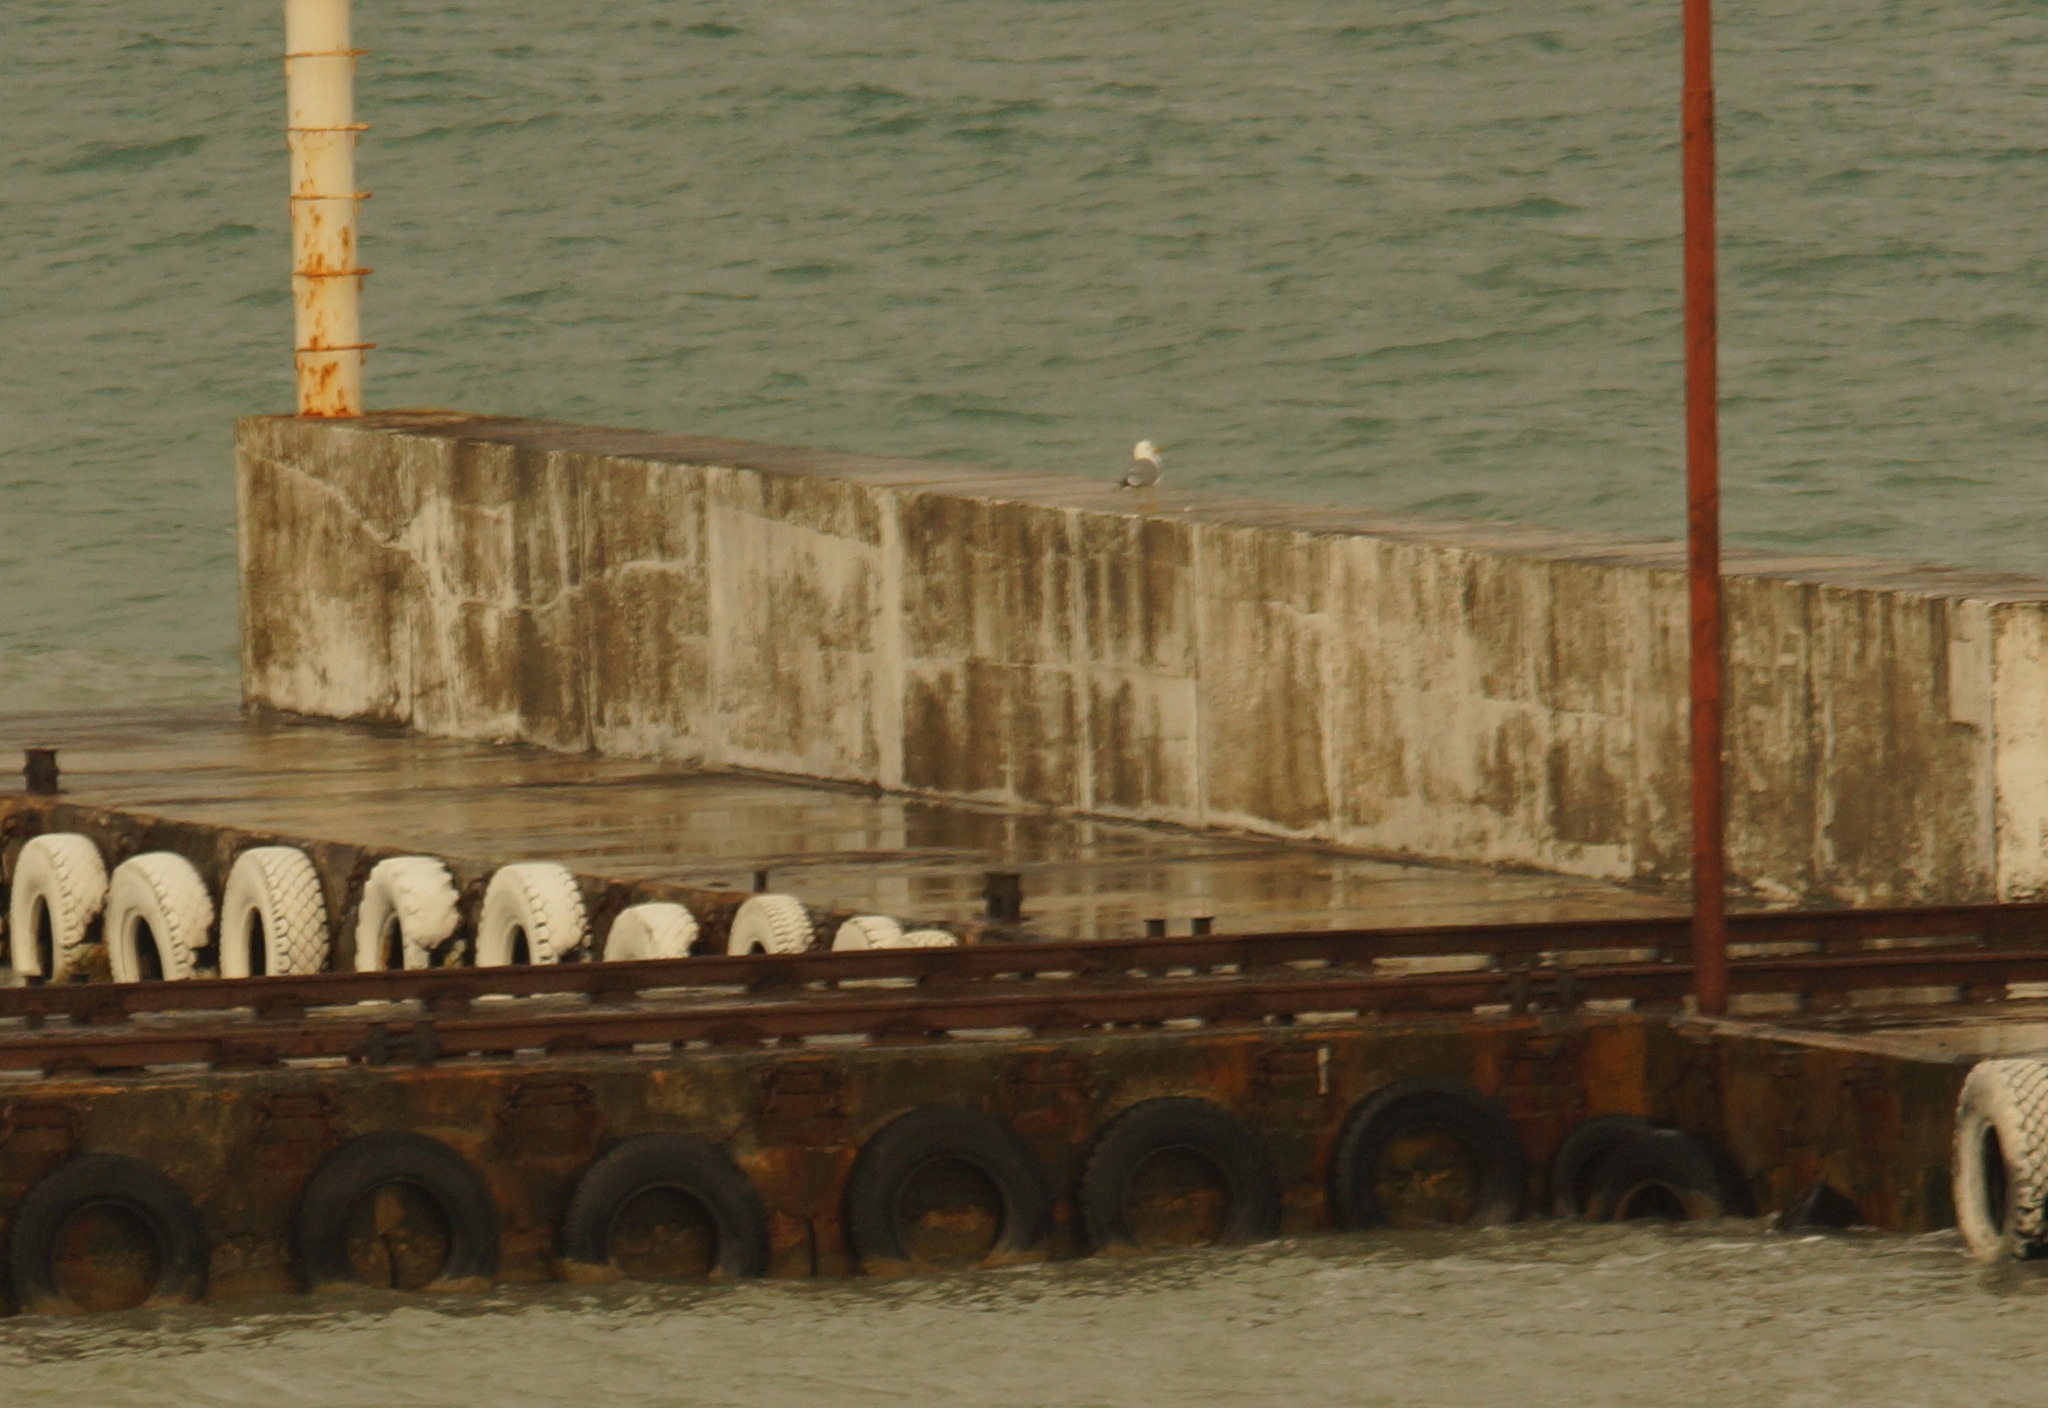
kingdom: Animalia
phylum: Chordata
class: Aves
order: Charadriiformes
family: Laridae
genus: Larus
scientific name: Larus michahellis
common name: Yellow-legged gull
